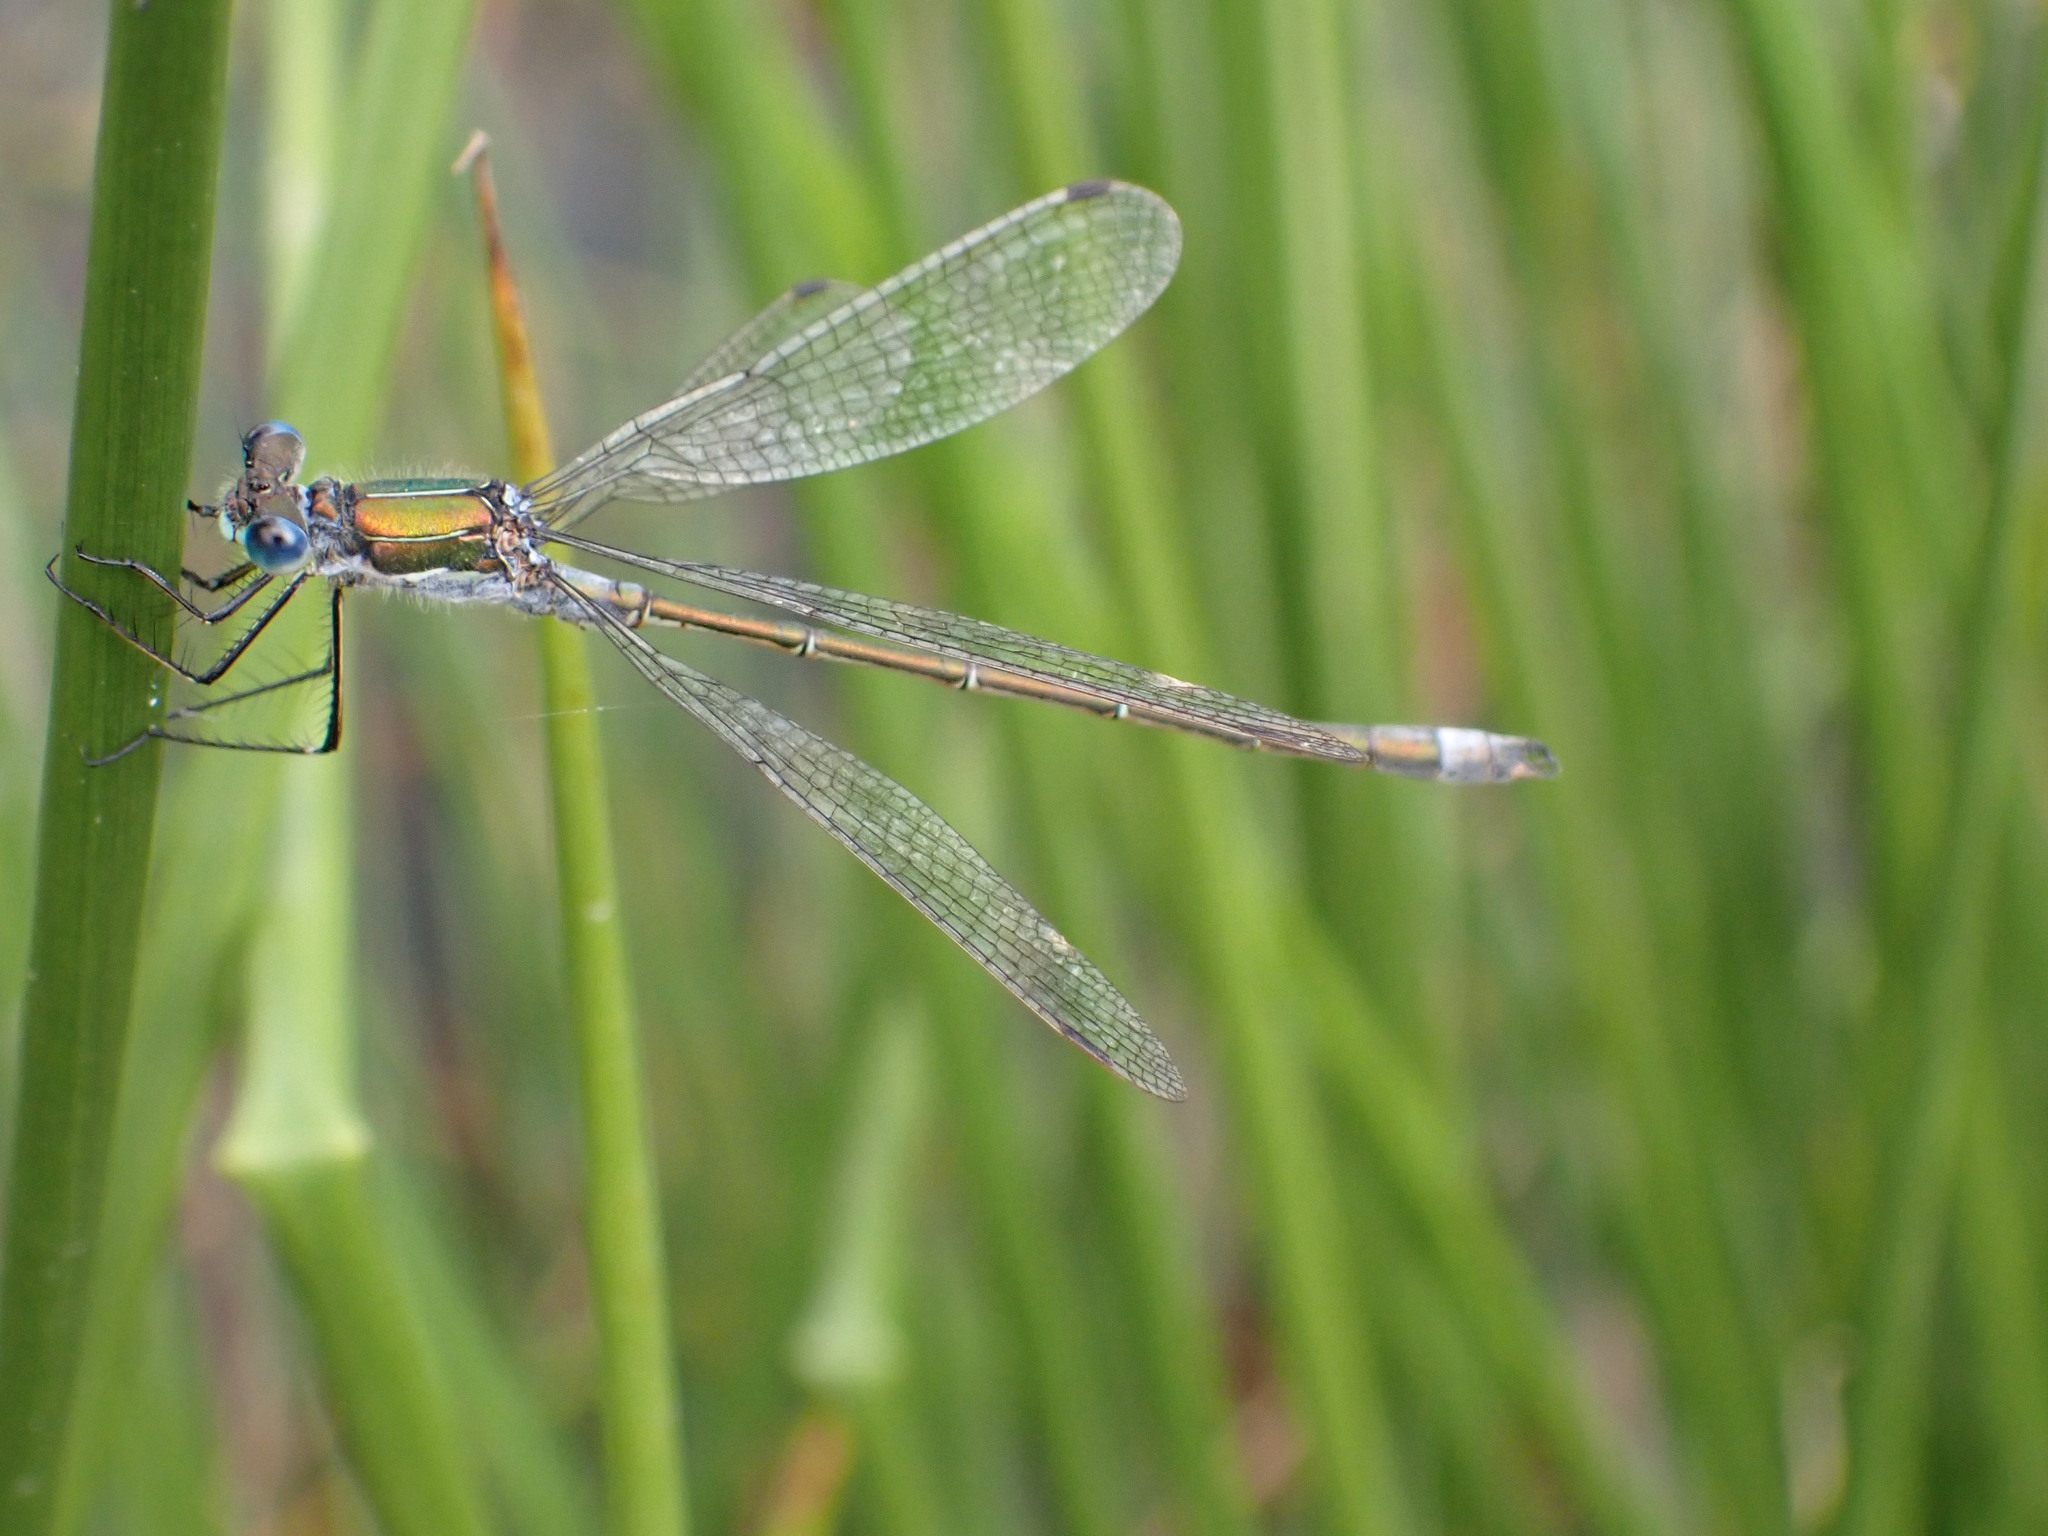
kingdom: Animalia
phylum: Arthropoda
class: Insecta
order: Odonata
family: Lestidae
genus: Lestes
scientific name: Lestes sponsa
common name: Common spreadwing
